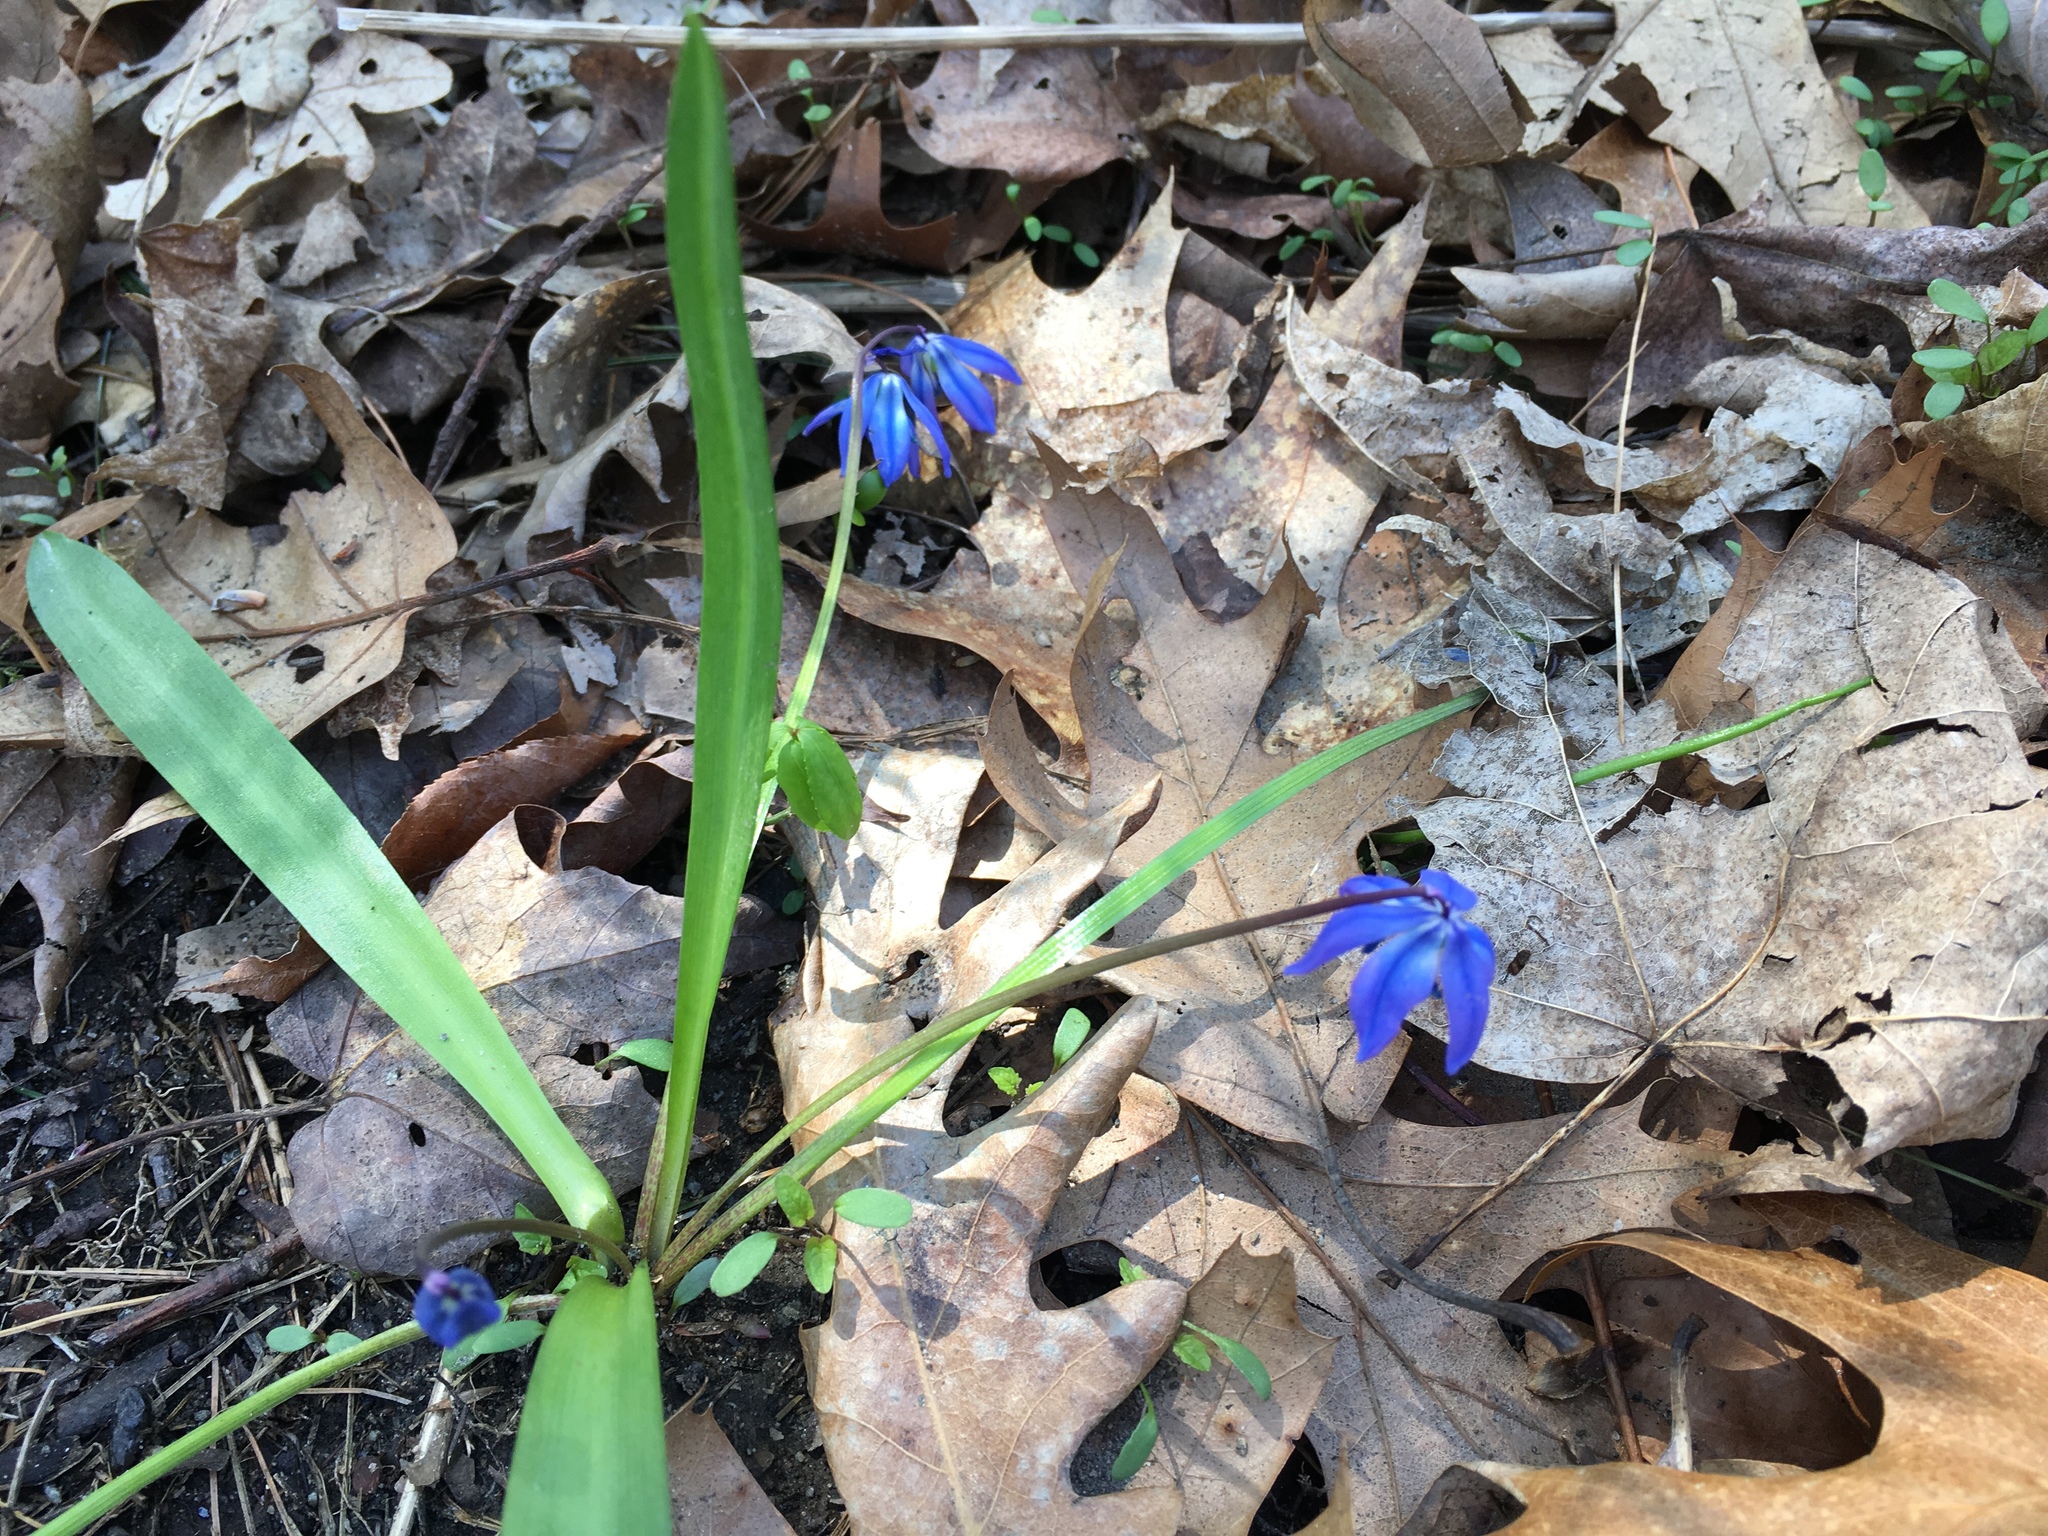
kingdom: Plantae
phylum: Tracheophyta
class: Liliopsida
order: Asparagales
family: Asparagaceae
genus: Scilla
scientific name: Scilla siberica
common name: Siberian squill
